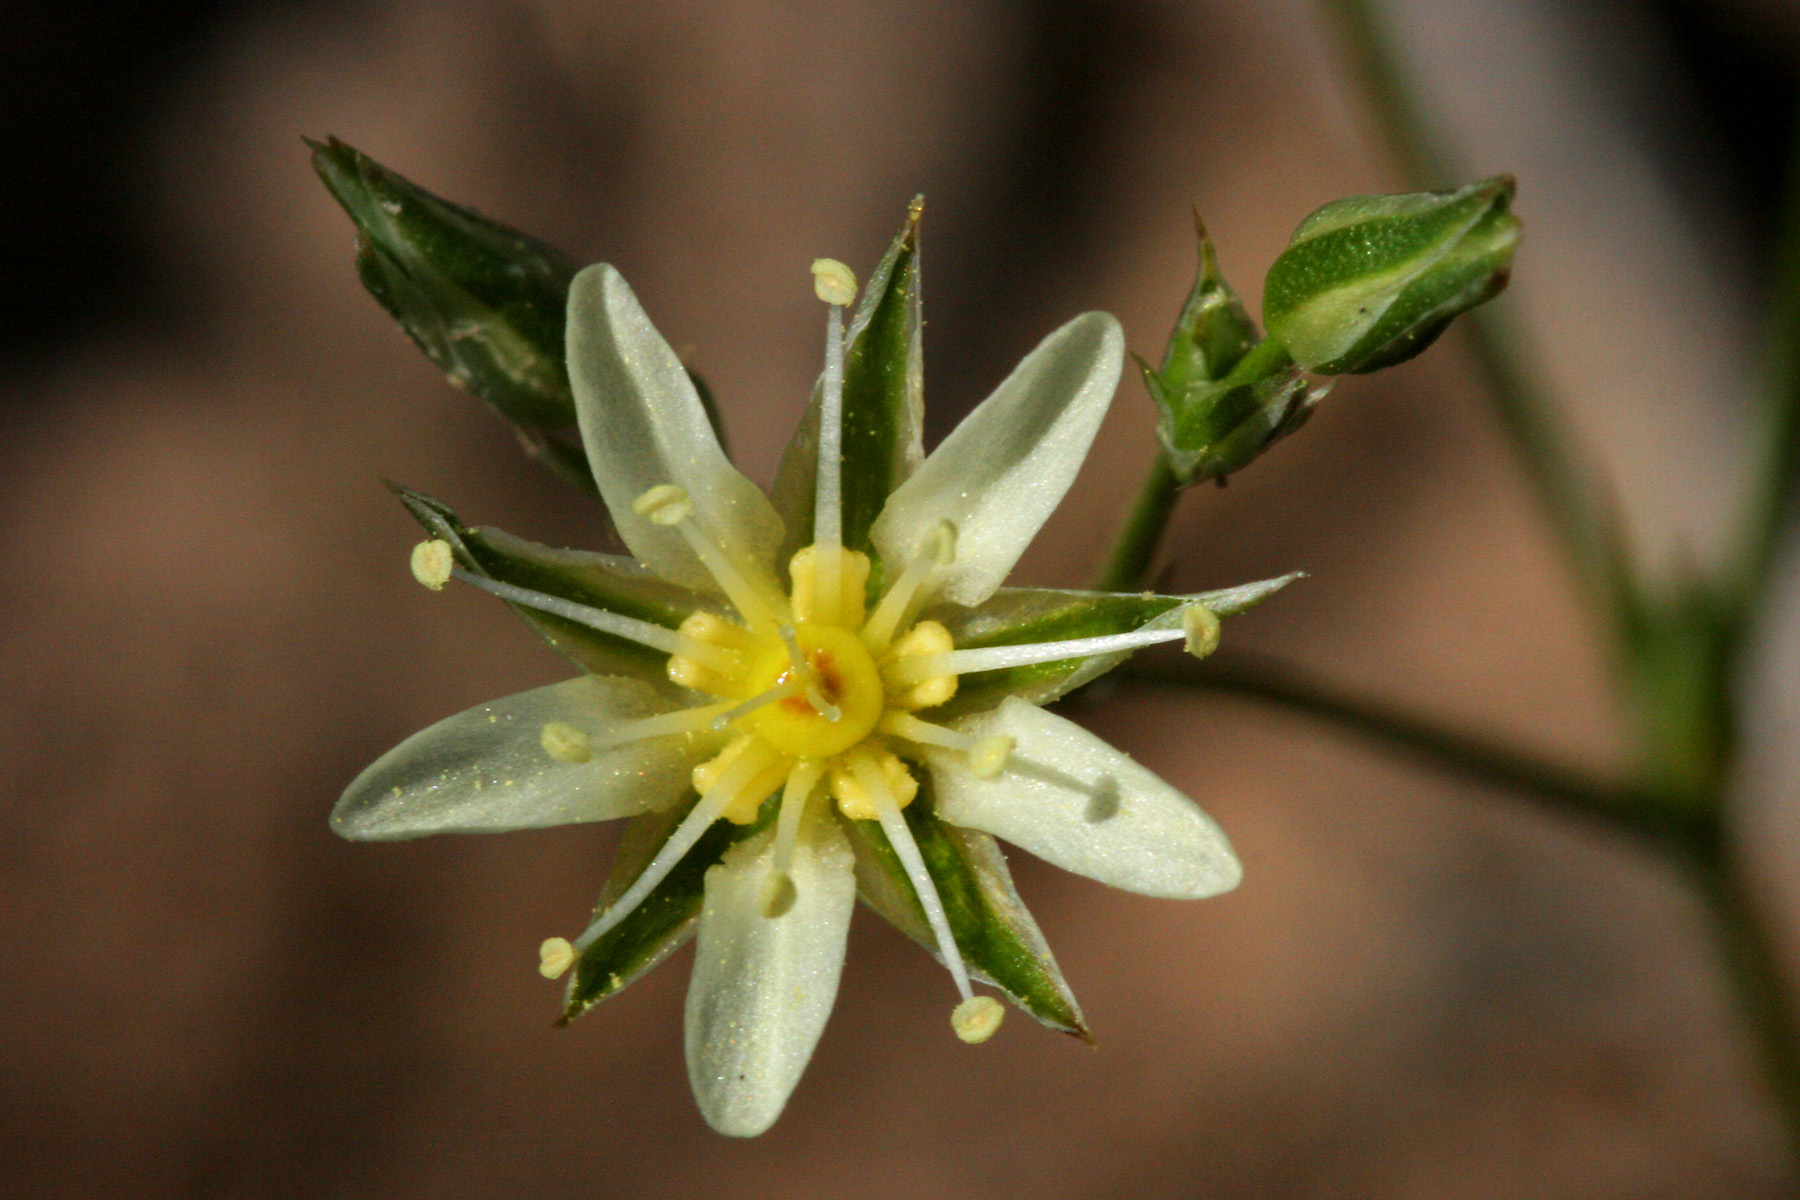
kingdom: Plantae
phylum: Tracheophyta
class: Magnoliopsida
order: Caryophyllales
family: Caryophyllaceae
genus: Eremogone
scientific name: Eremogone eastwoodiae
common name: Eastwood's sandwort
